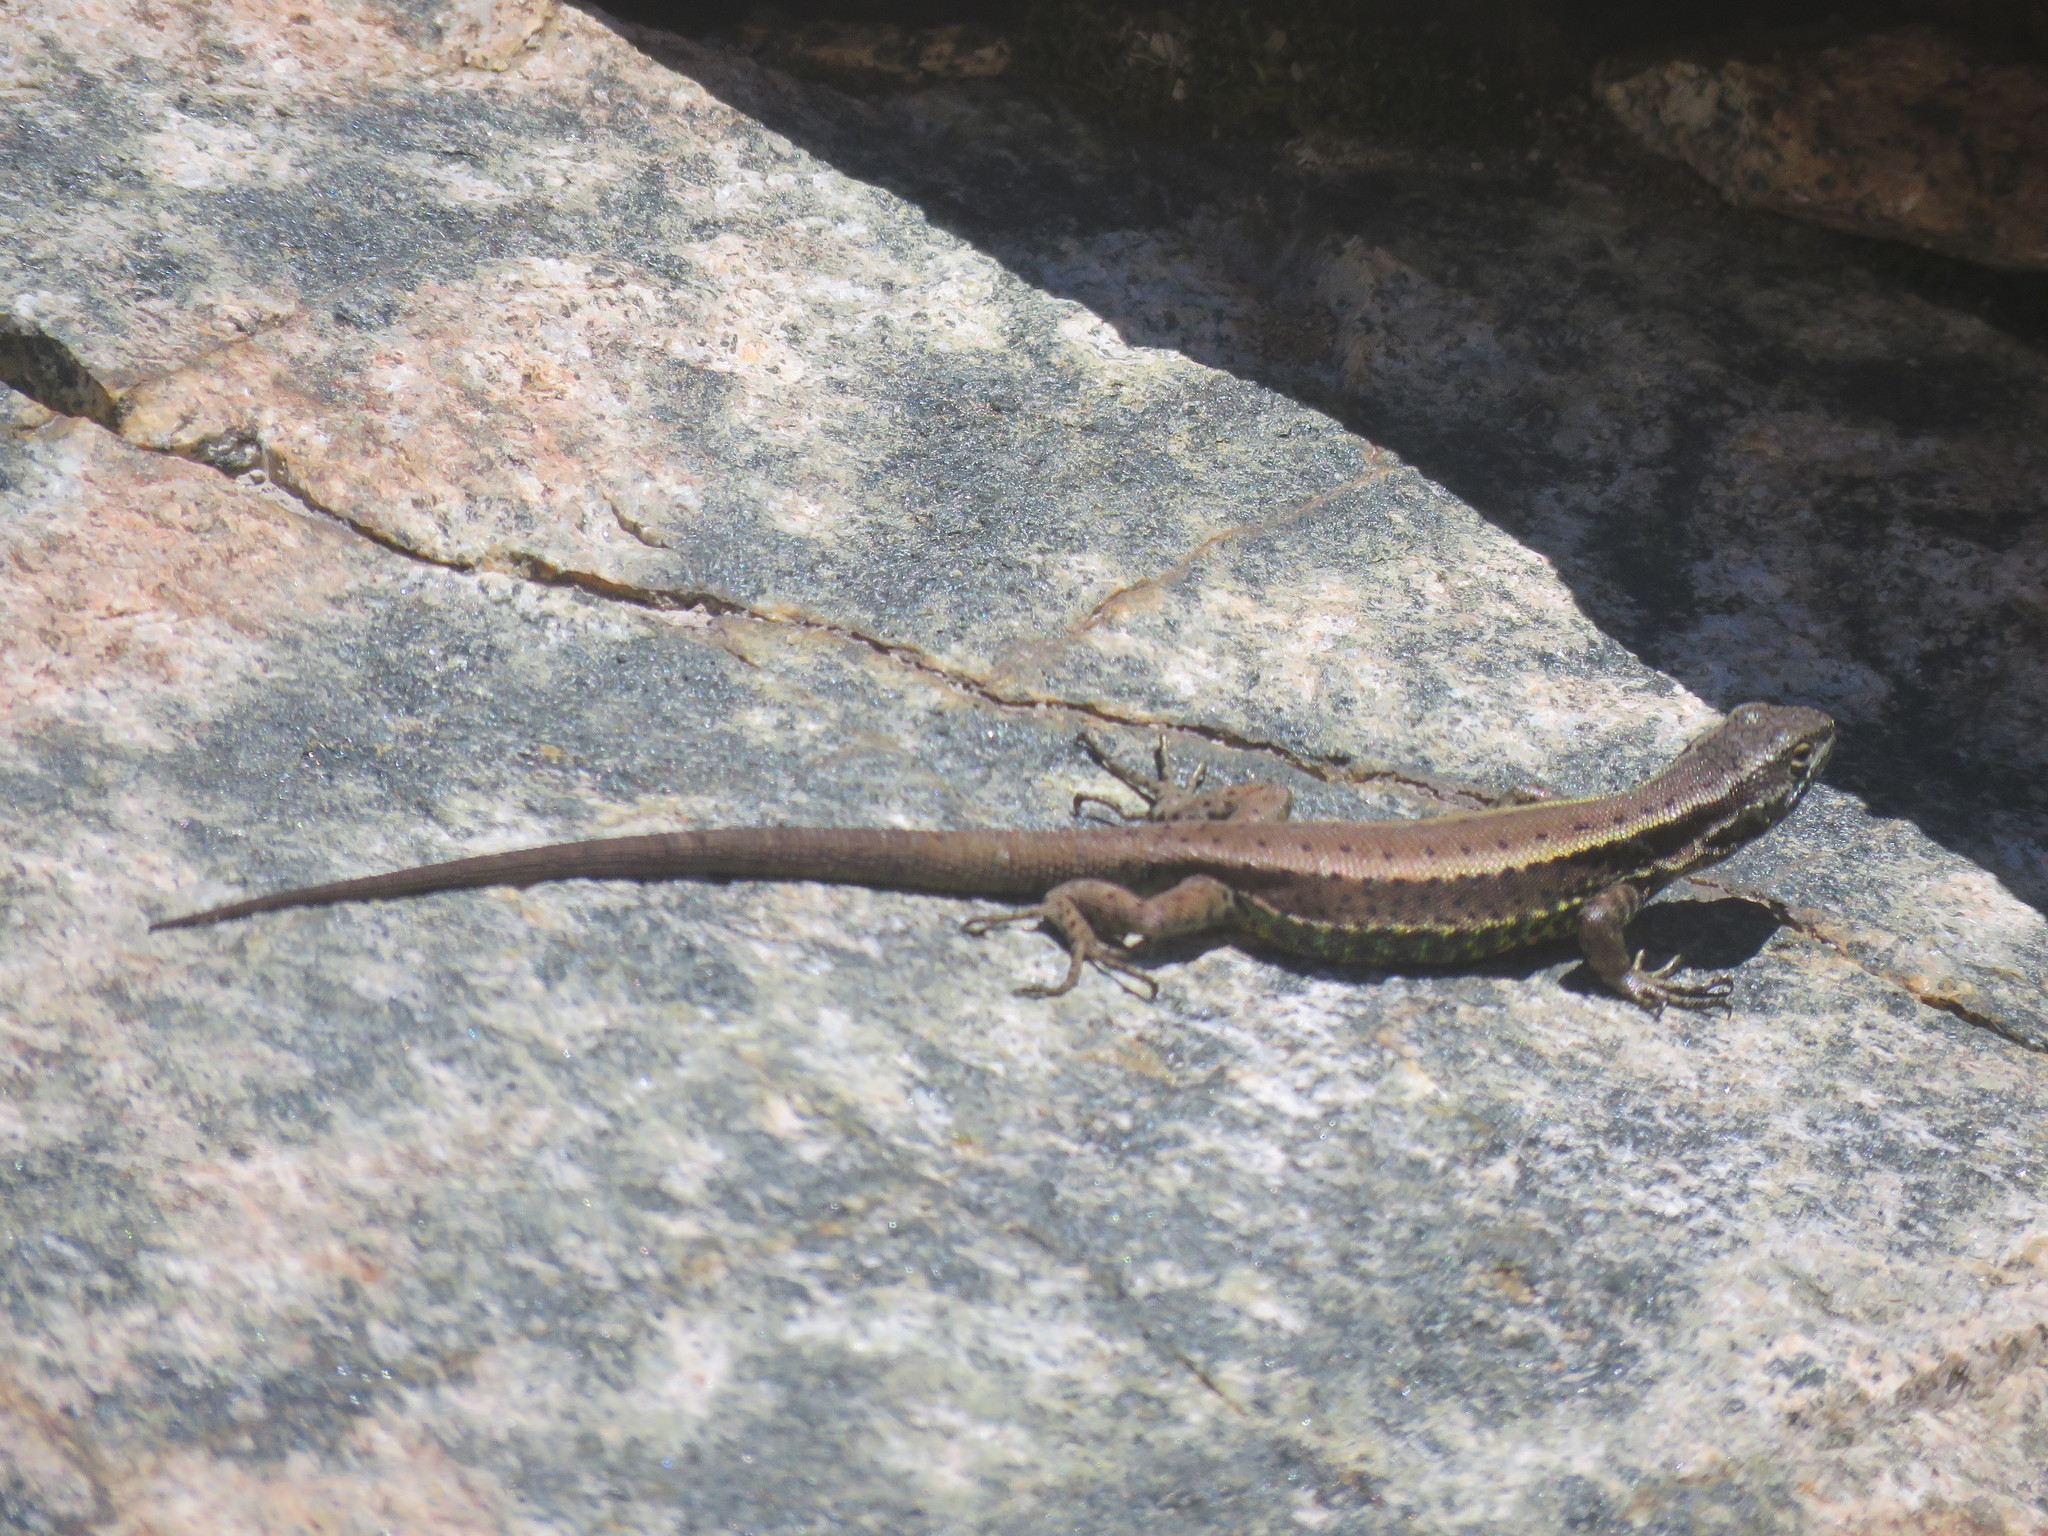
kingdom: Animalia
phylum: Chordata
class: Squamata
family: Liolaemidae
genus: Liolaemus
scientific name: Liolaemus pictus
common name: Painted tree iguana
